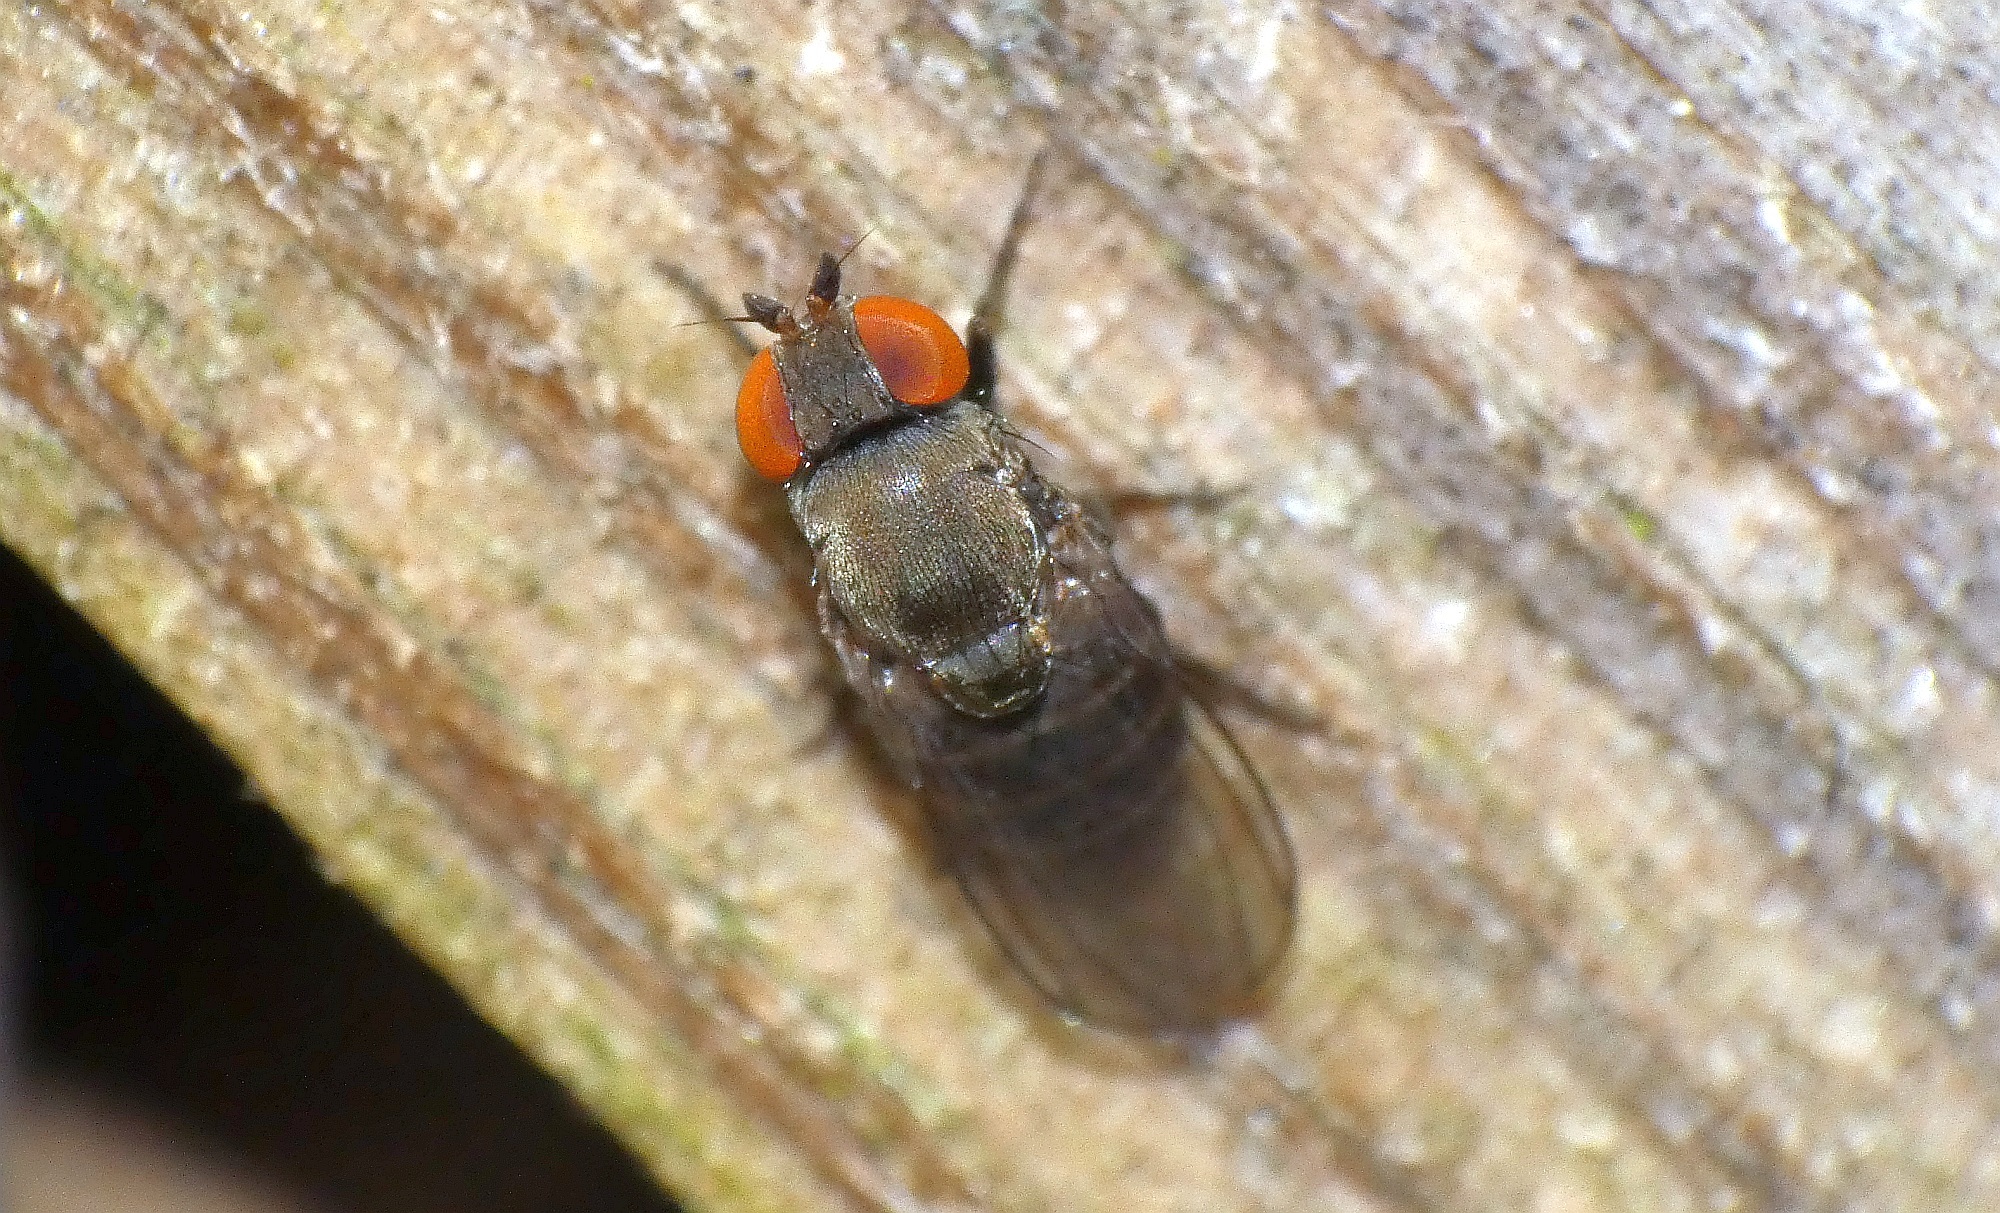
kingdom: Animalia
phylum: Arthropoda
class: Insecta
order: Diptera
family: Drosophilidae
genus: Cacoxenus
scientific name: Cacoxenus indagator
